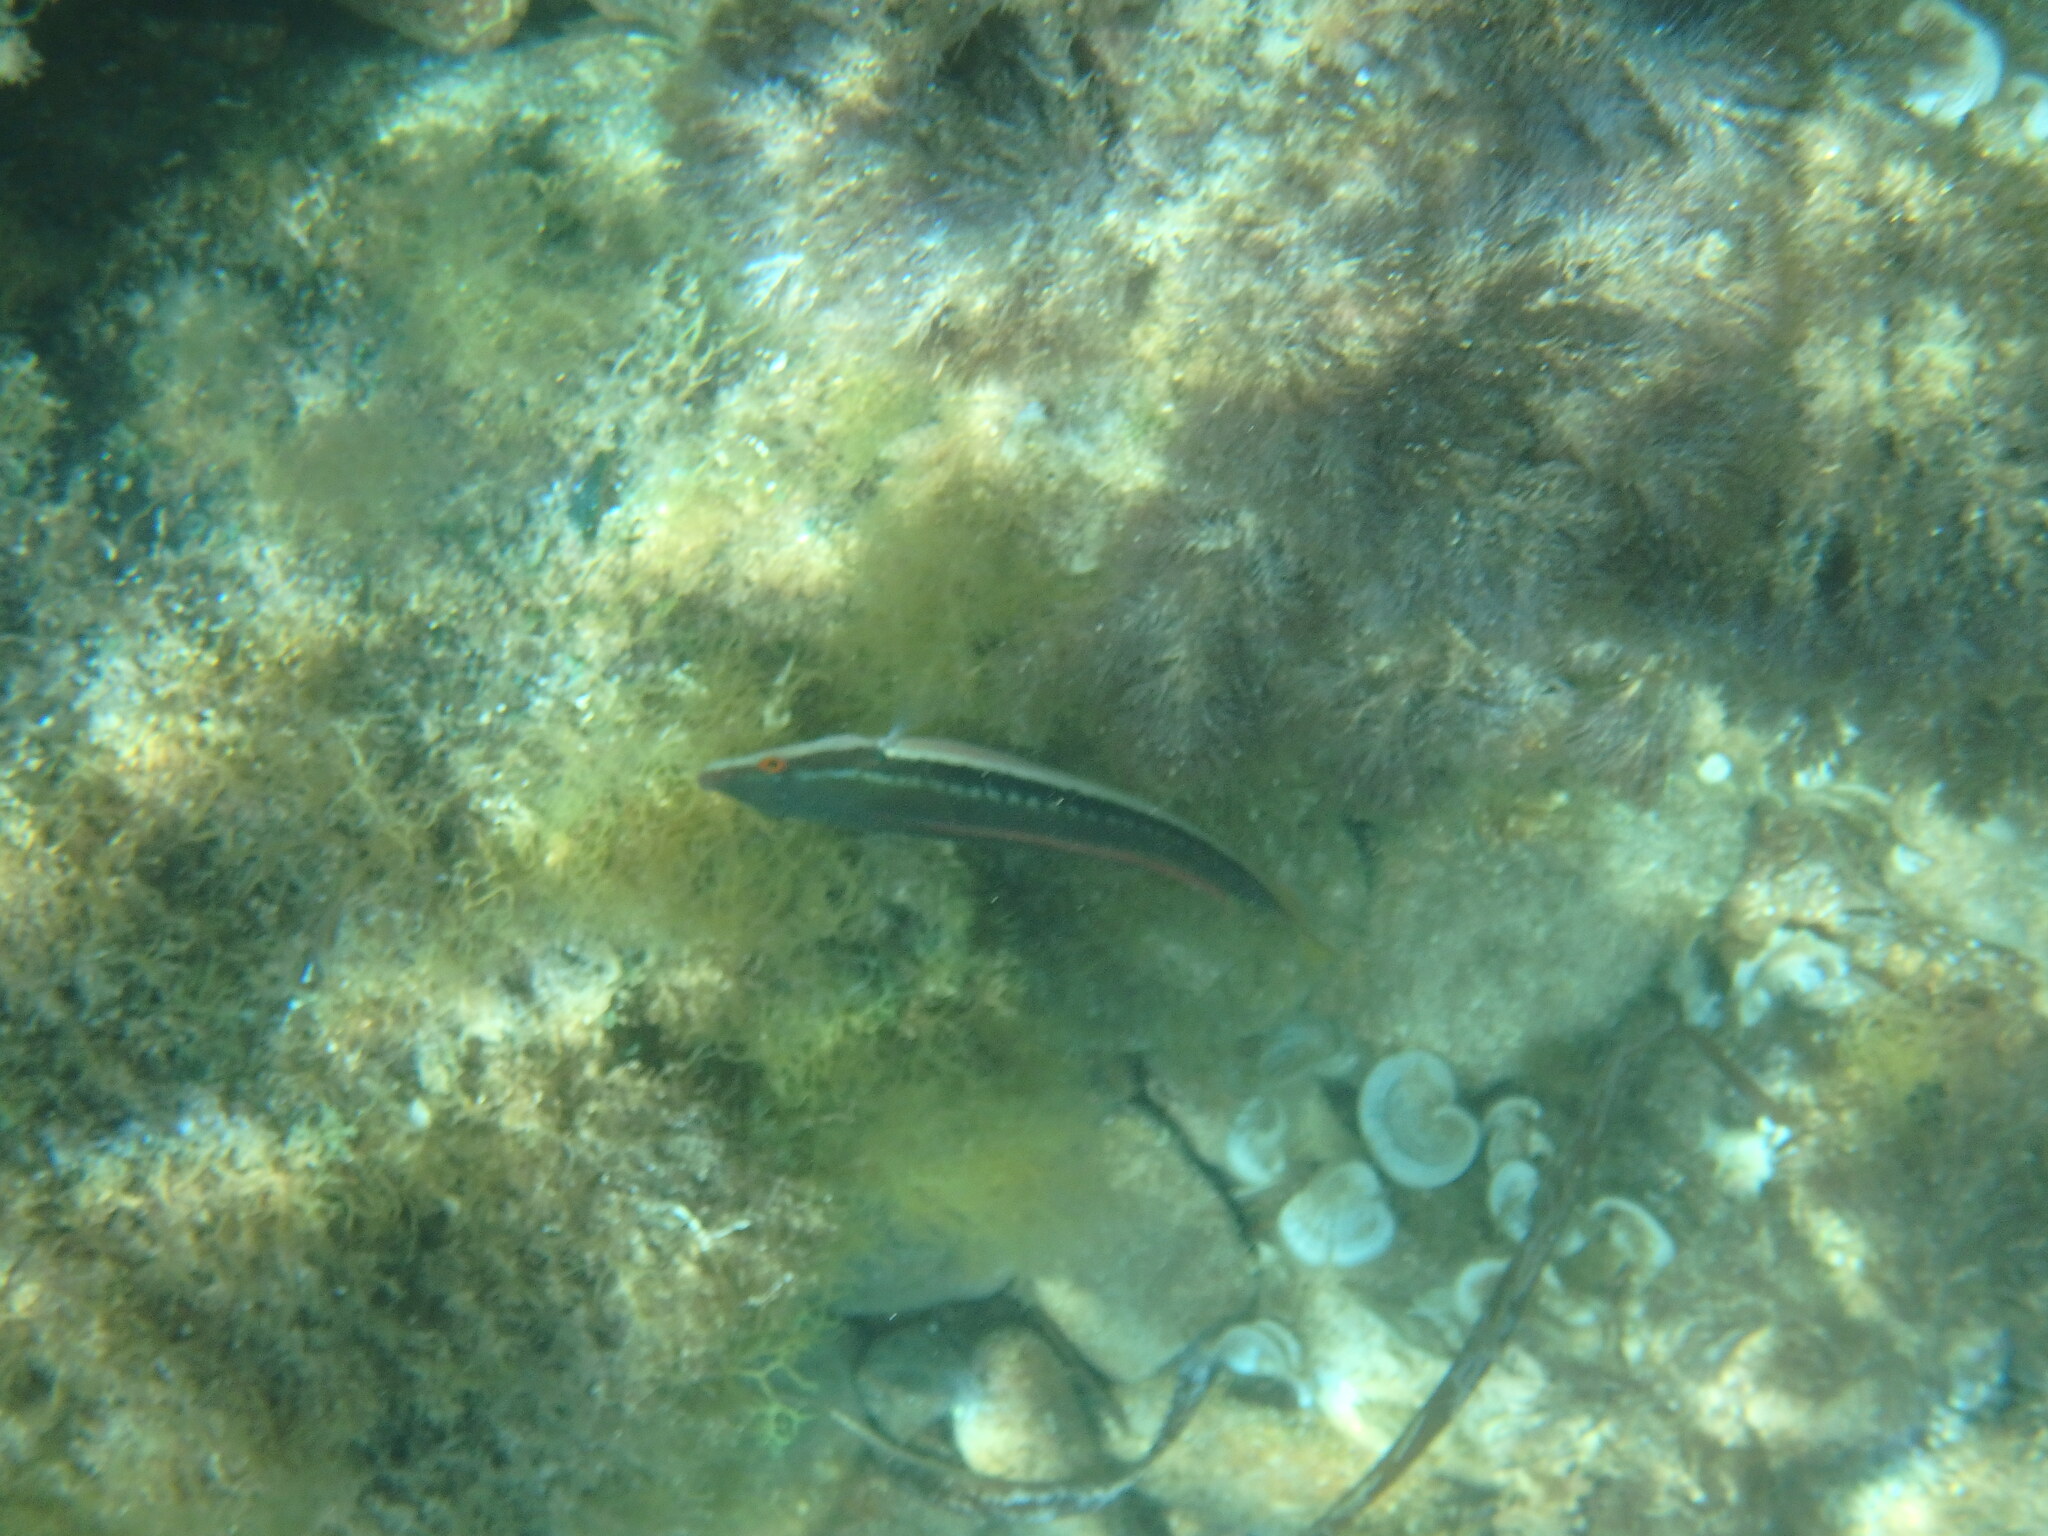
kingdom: Animalia
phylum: Chordata
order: Perciformes
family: Labridae
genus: Coris
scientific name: Coris julis
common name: Rainbow wrasse
